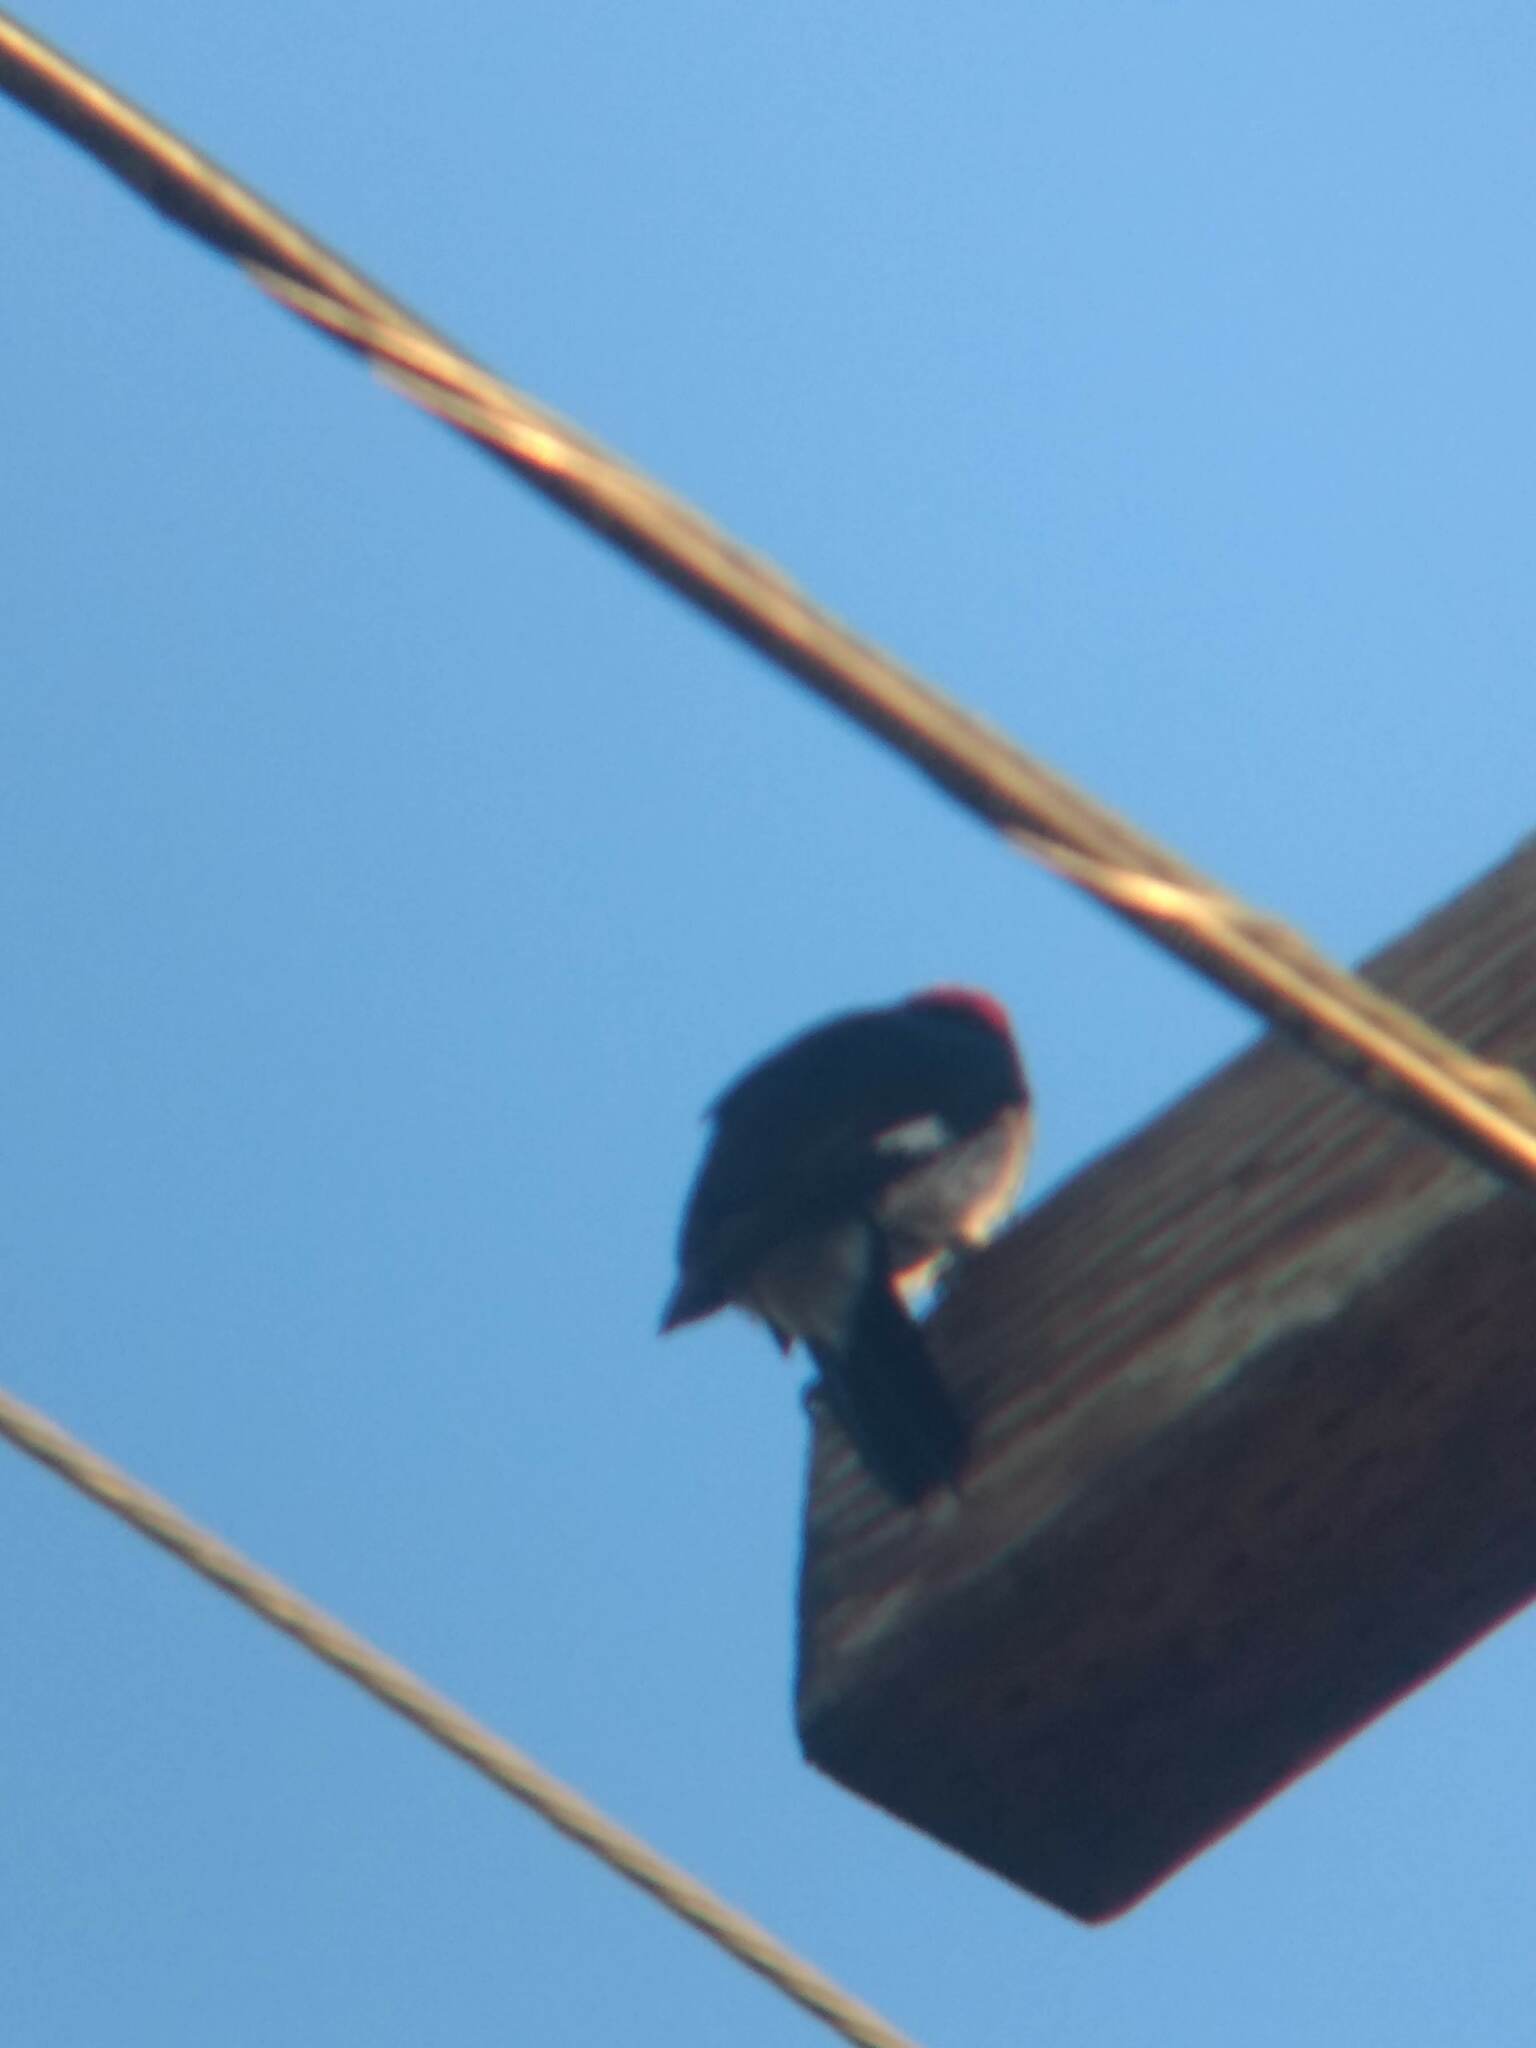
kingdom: Animalia
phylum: Chordata
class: Aves
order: Piciformes
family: Picidae
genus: Melanerpes
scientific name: Melanerpes formicivorus
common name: Acorn woodpecker
